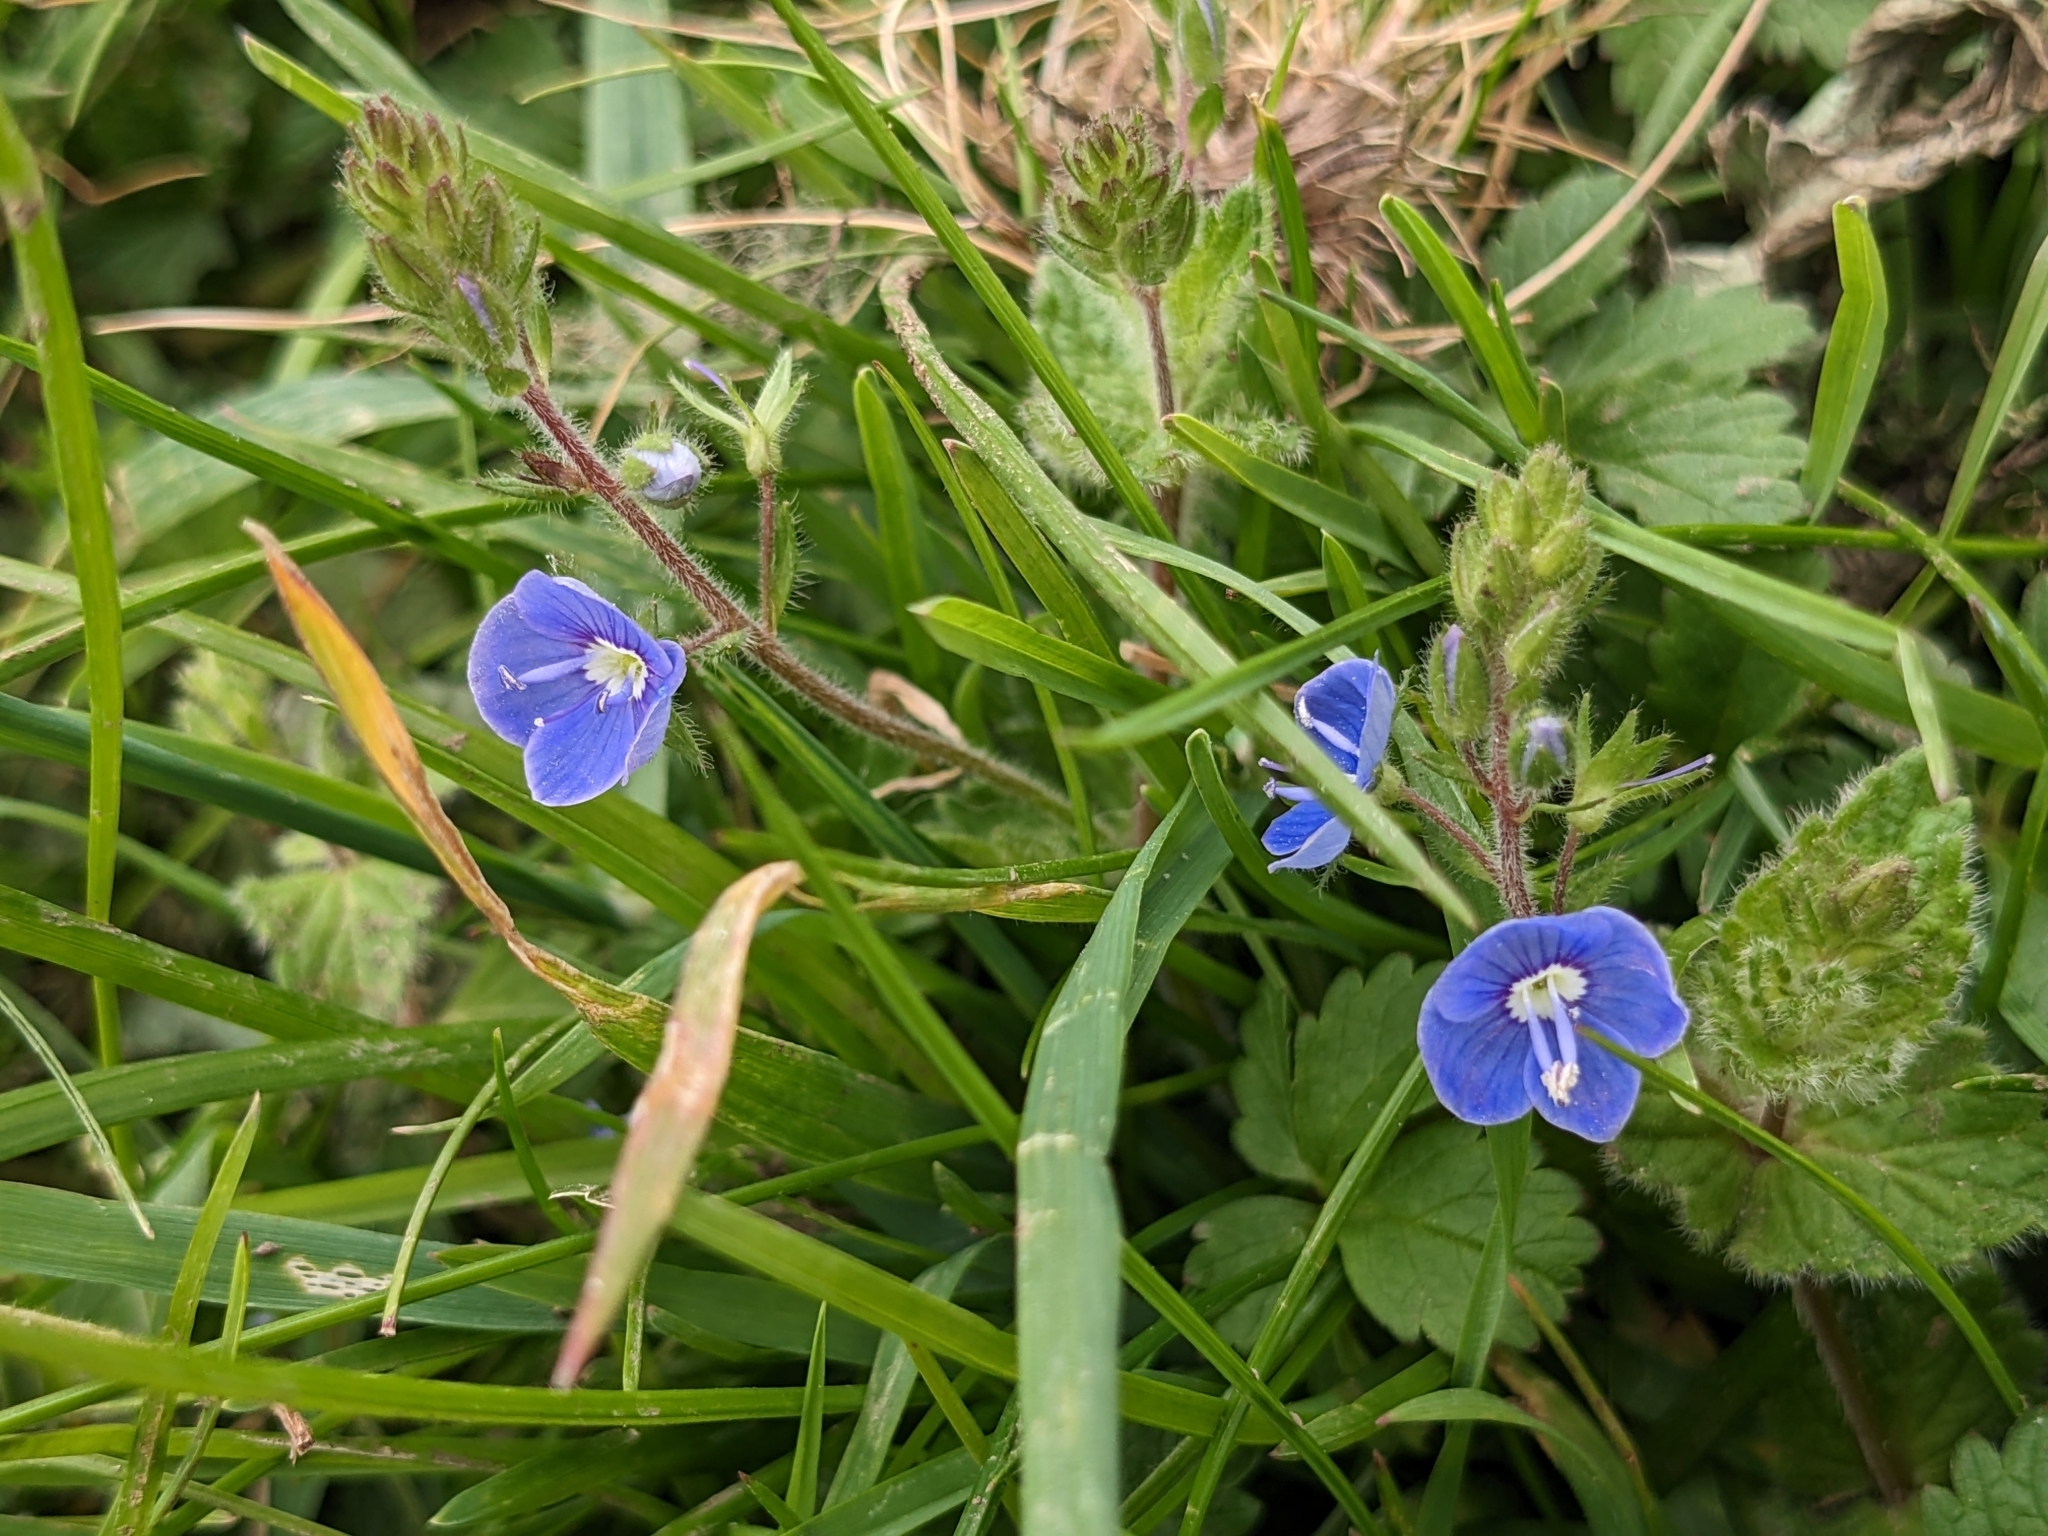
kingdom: Plantae
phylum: Tracheophyta
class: Magnoliopsida
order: Lamiales
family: Plantaginaceae
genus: Veronica
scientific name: Veronica chamaedrys
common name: Germander speedwell
